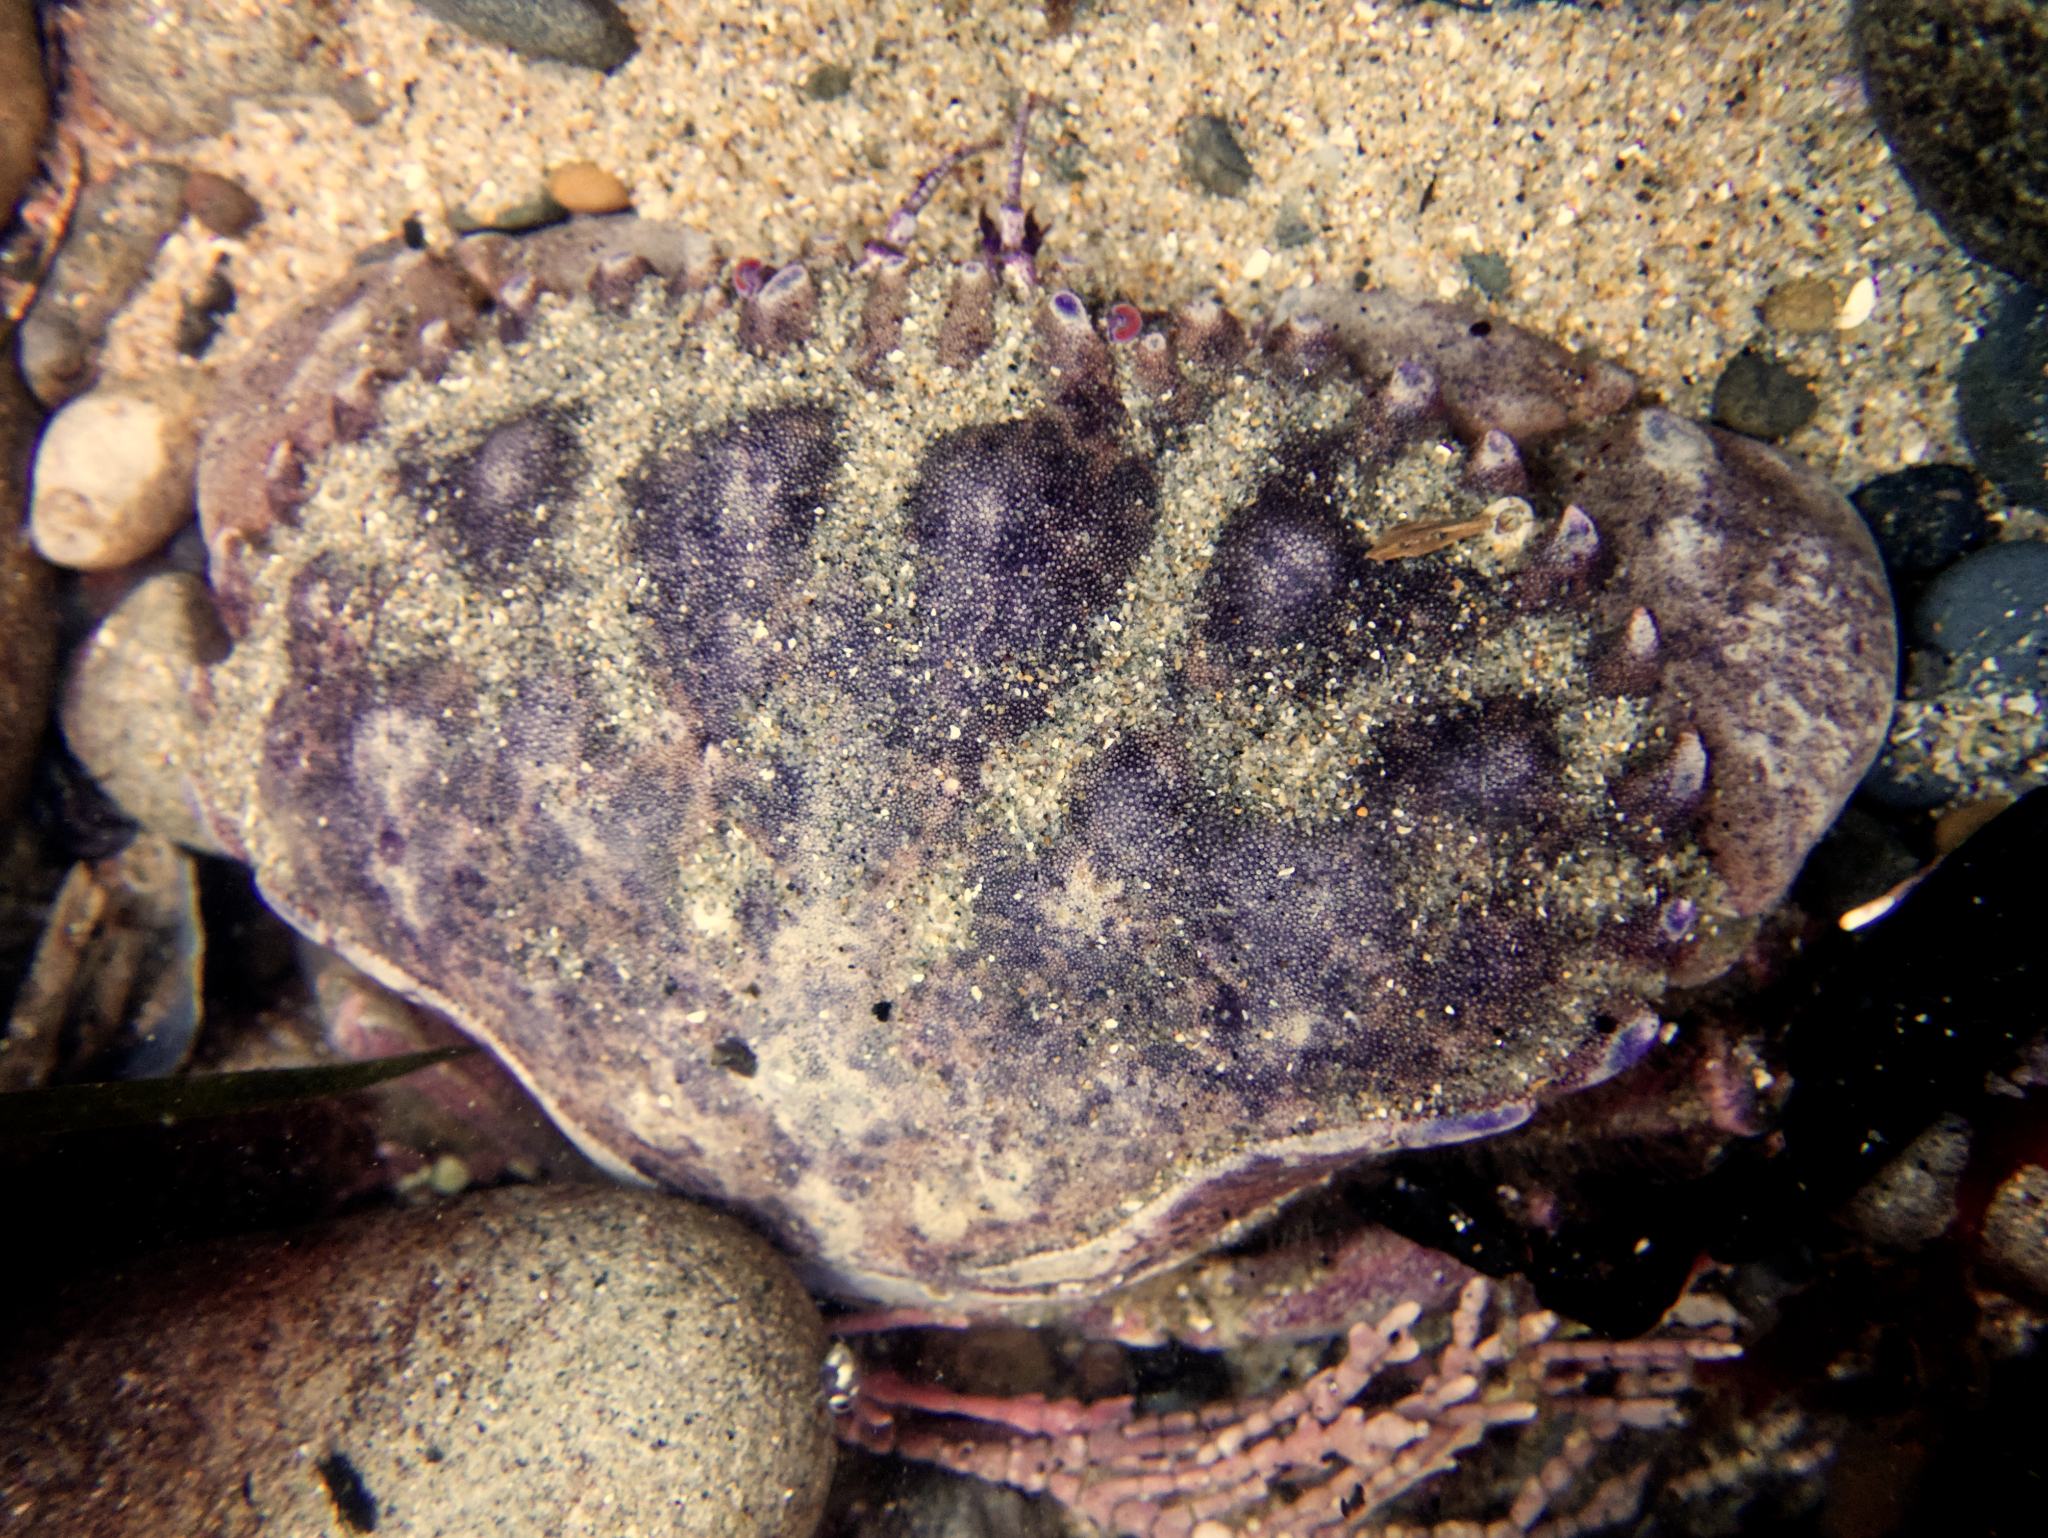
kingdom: Animalia
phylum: Arthropoda
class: Malacostraca
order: Decapoda
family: Cancridae
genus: Romaleon
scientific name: Romaleon antennarium
